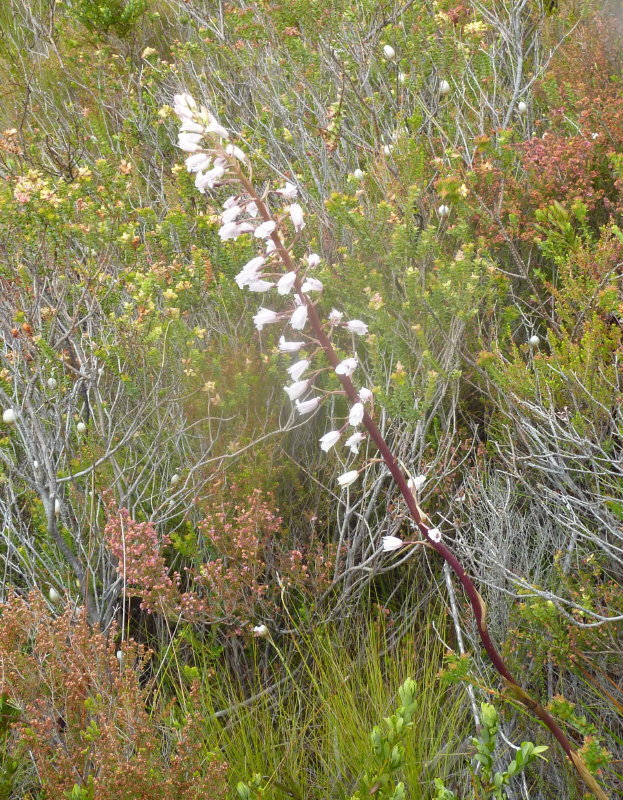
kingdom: Plantae
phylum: Tracheophyta
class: Liliopsida
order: Asparagales
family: Orchidaceae
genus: Eulophia
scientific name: Eulophia barbata
